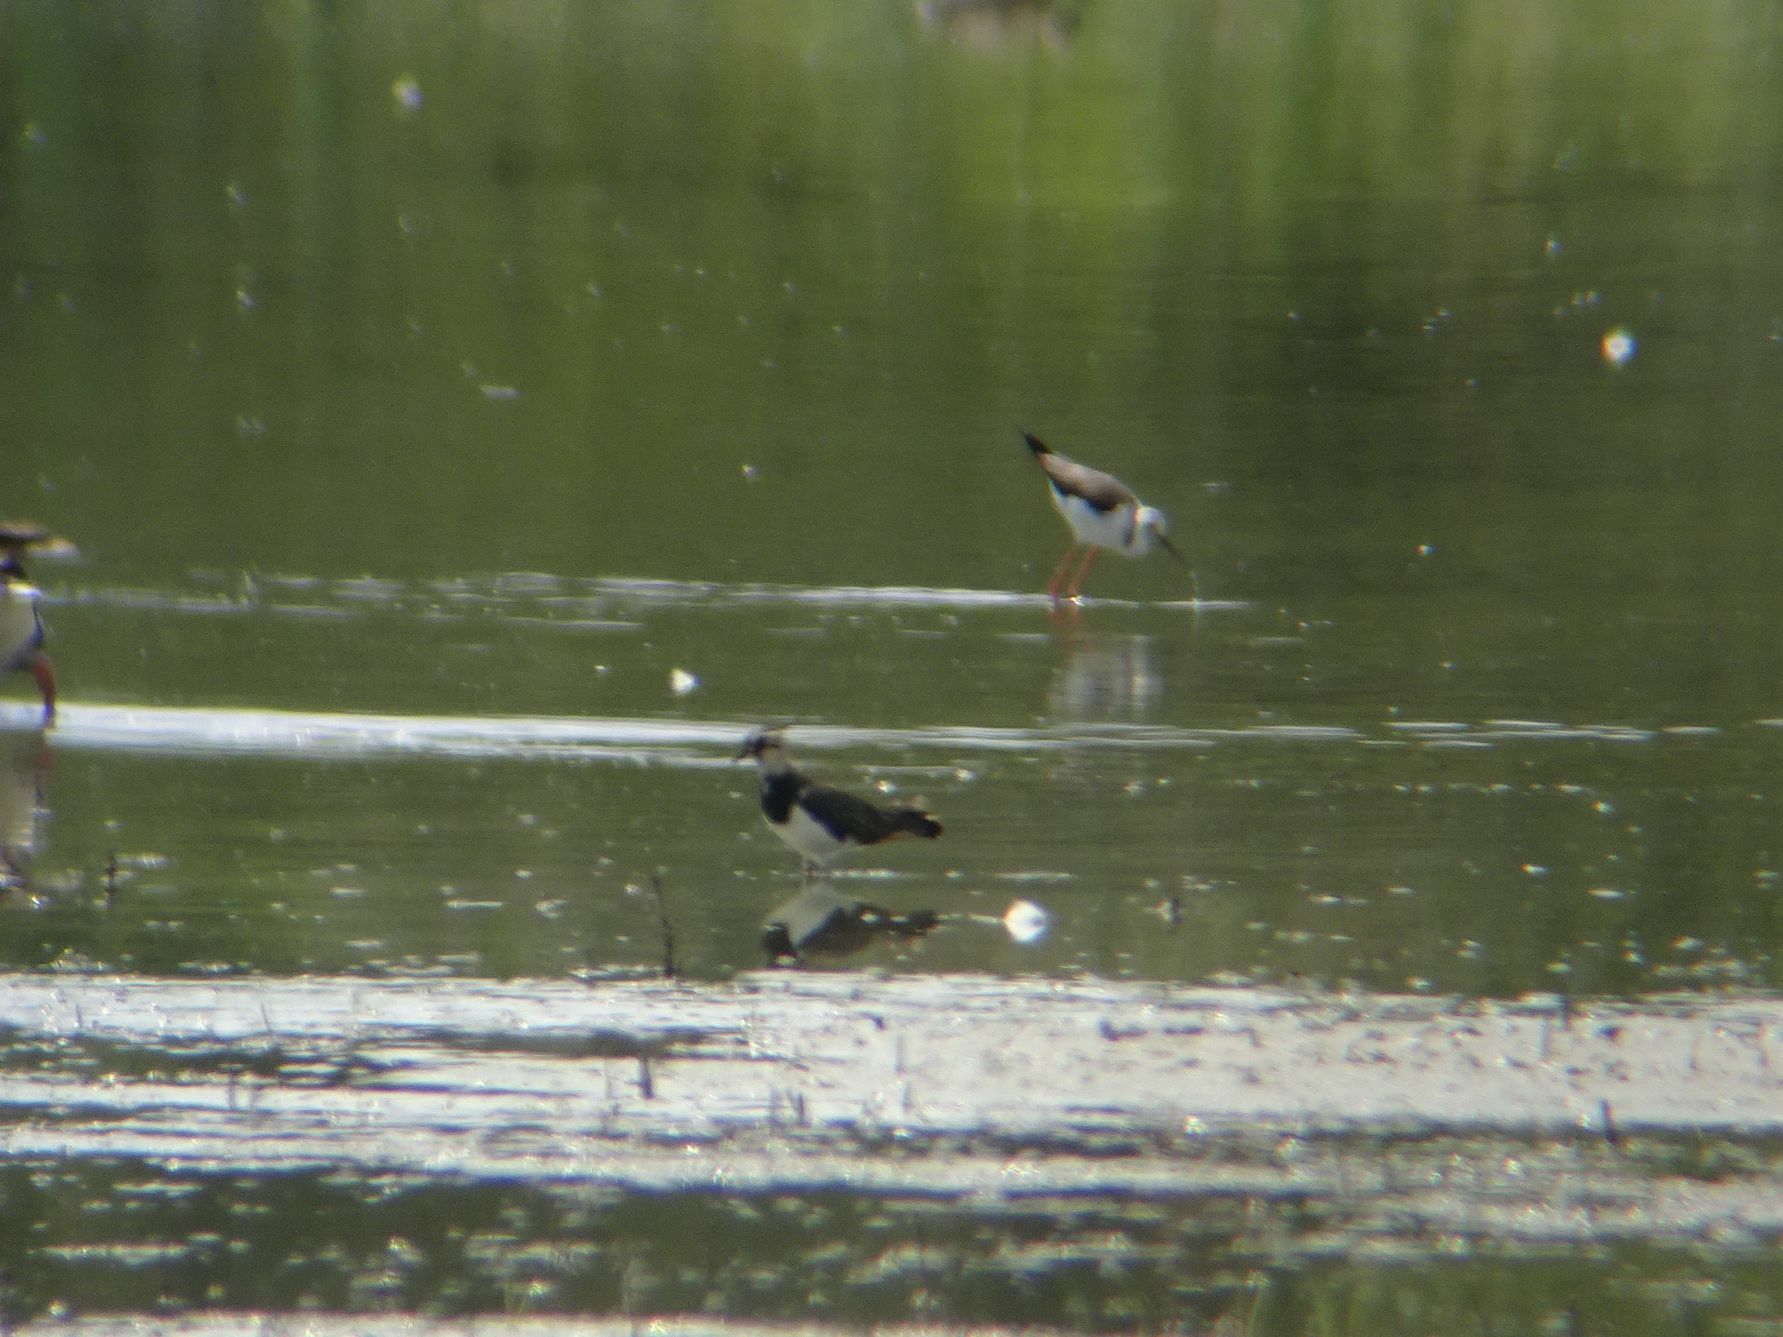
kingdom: Animalia
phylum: Chordata
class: Aves
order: Charadriiformes
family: Charadriidae
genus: Vanellus
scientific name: Vanellus vanellus
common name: Northern lapwing
